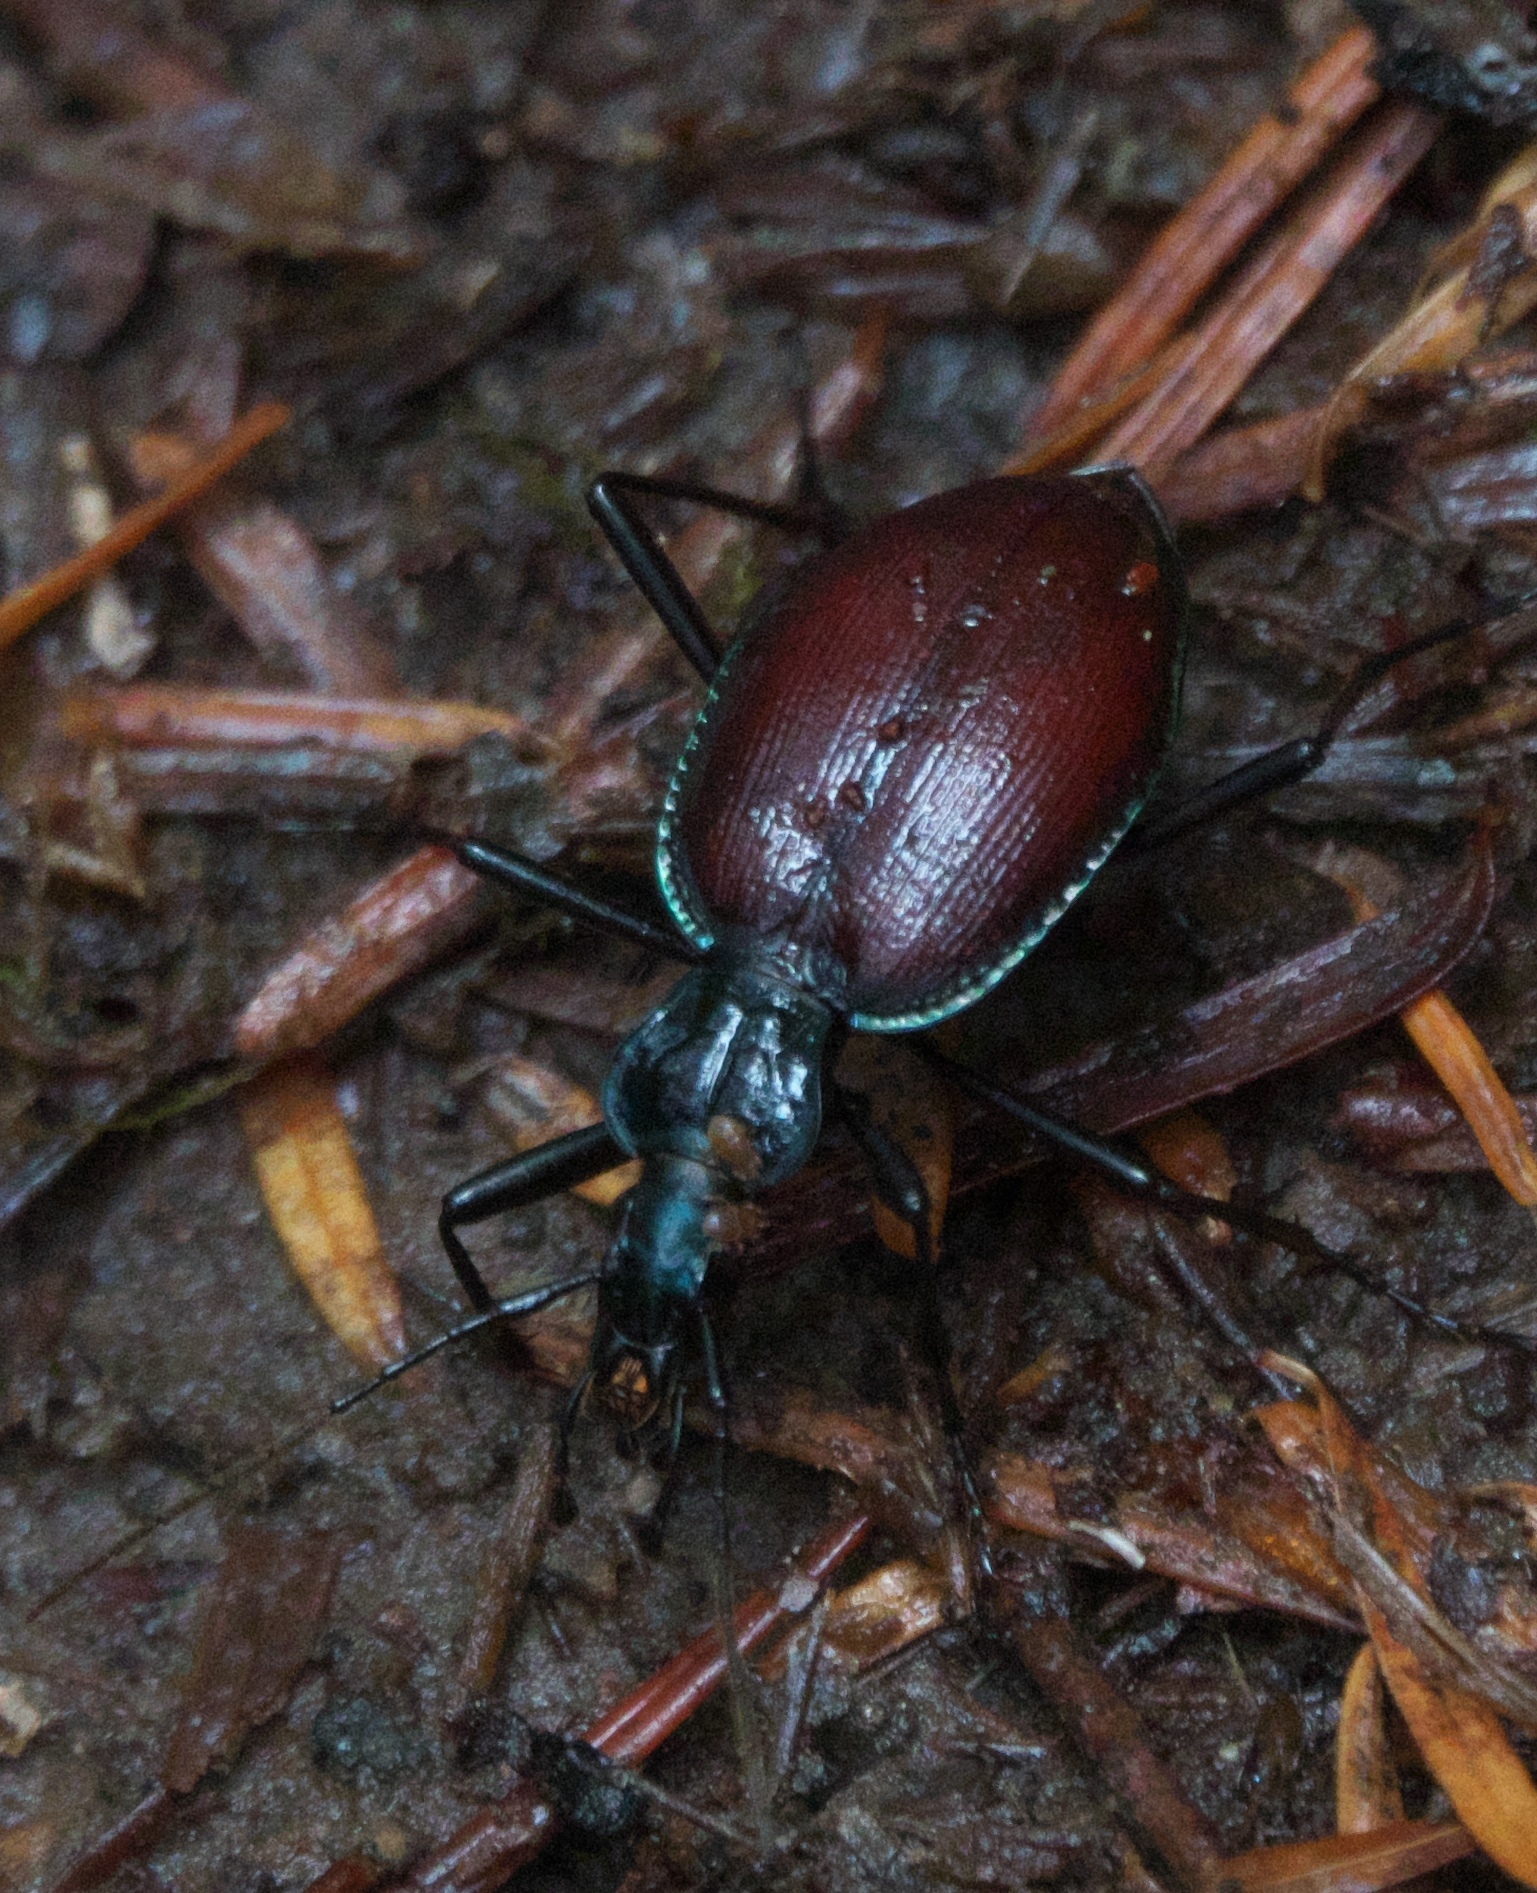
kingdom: Animalia
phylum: Arthropoda
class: Insecta
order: Coleoptera
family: Carabidae
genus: Scaphinotus
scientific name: Scaphinotus angusticollis
